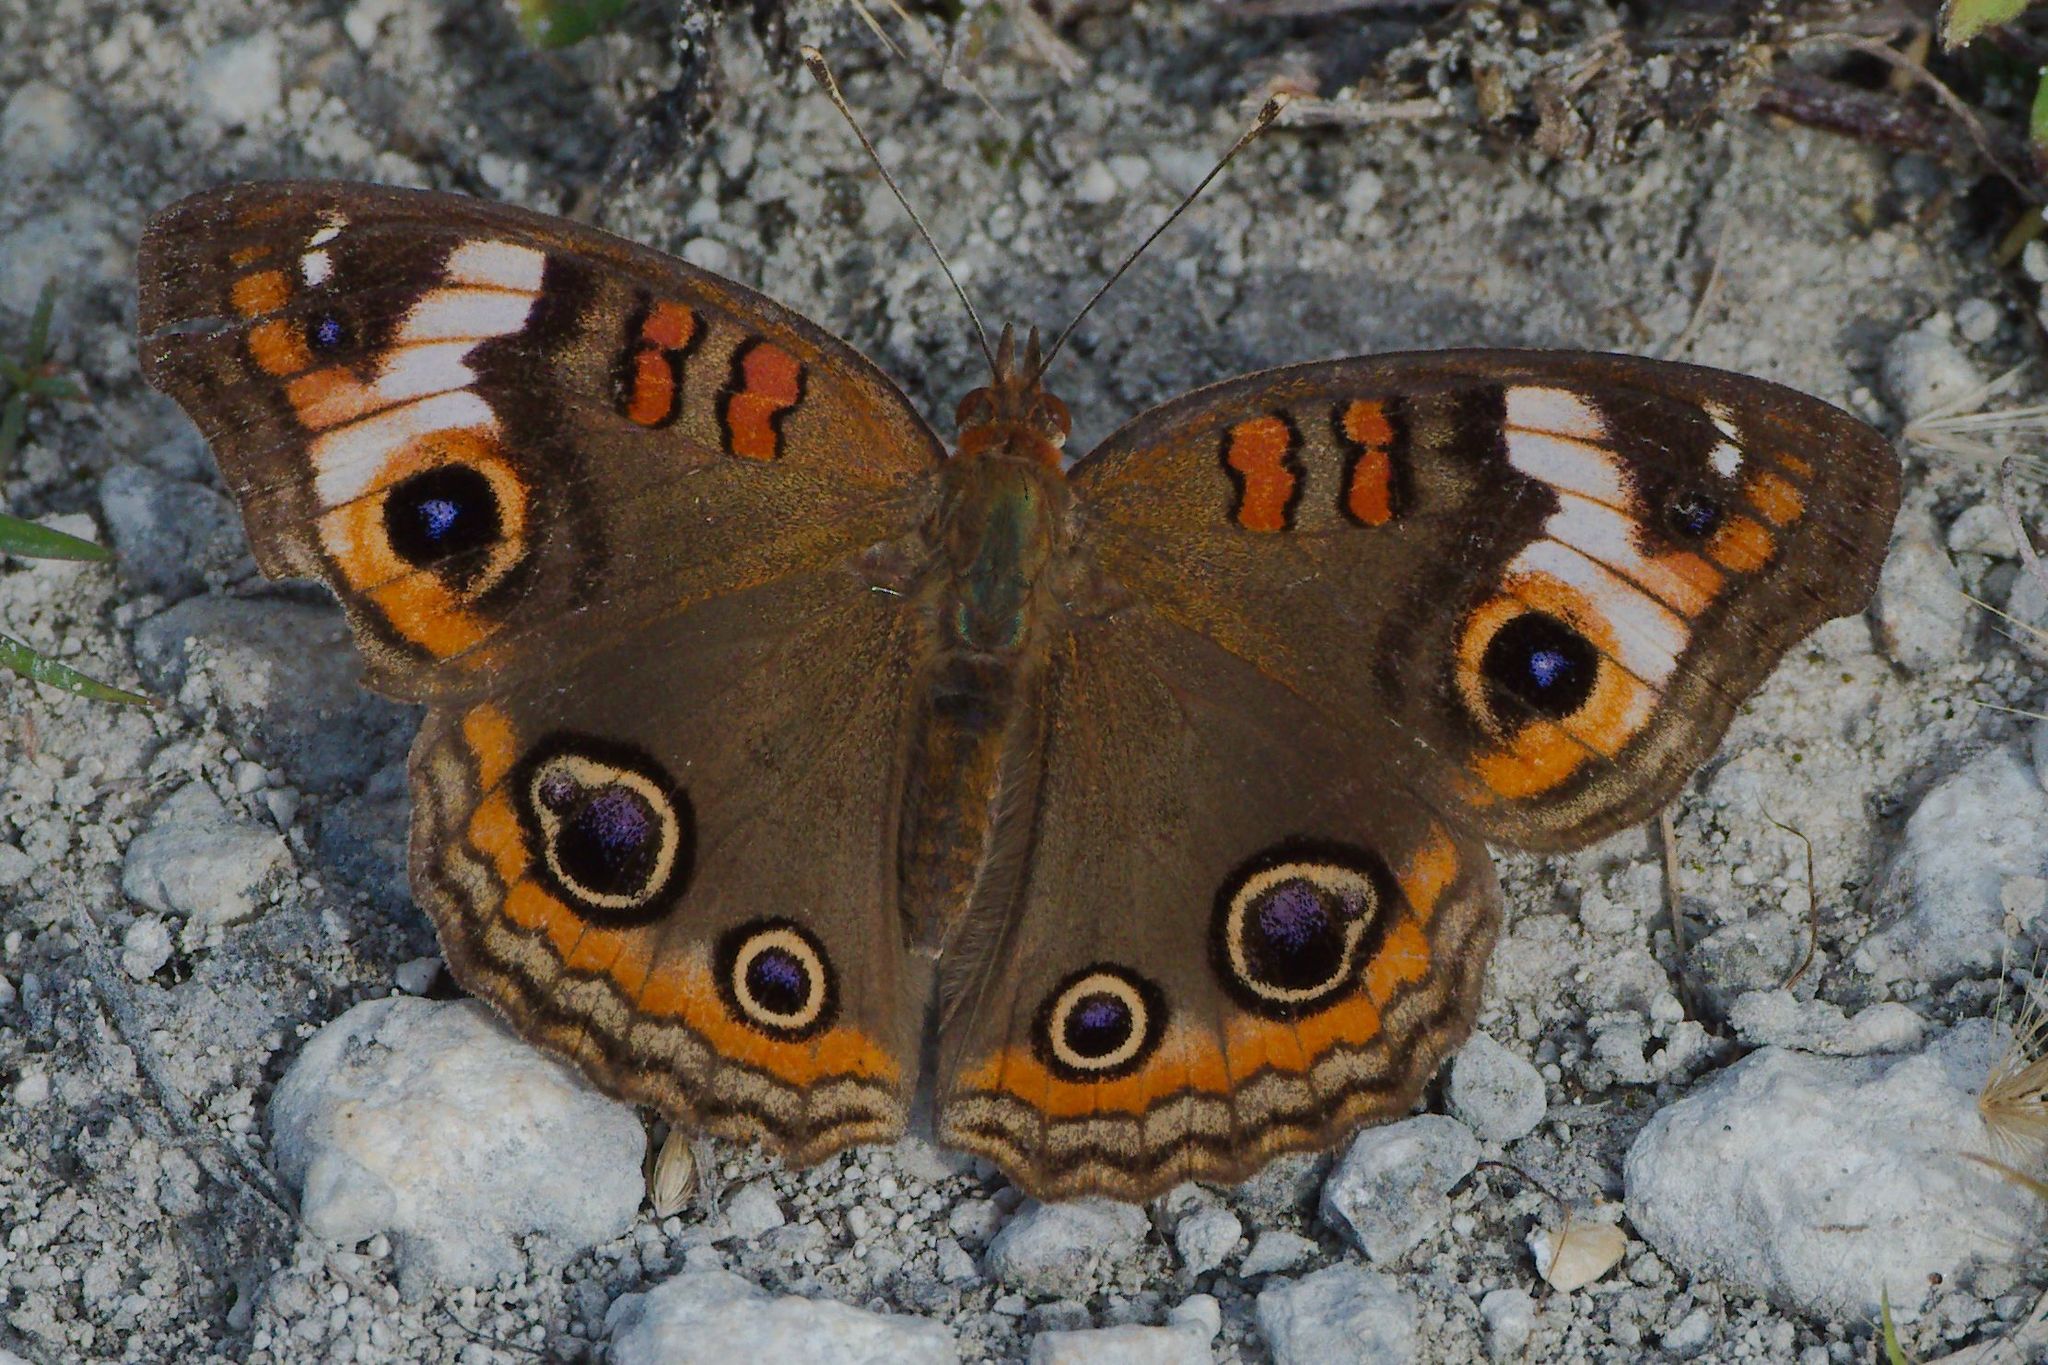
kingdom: Animalia
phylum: Arthropoda
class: Insecta
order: Lepidoptera
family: Nymphalidae
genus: Junonia
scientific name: Junonia lavinia
